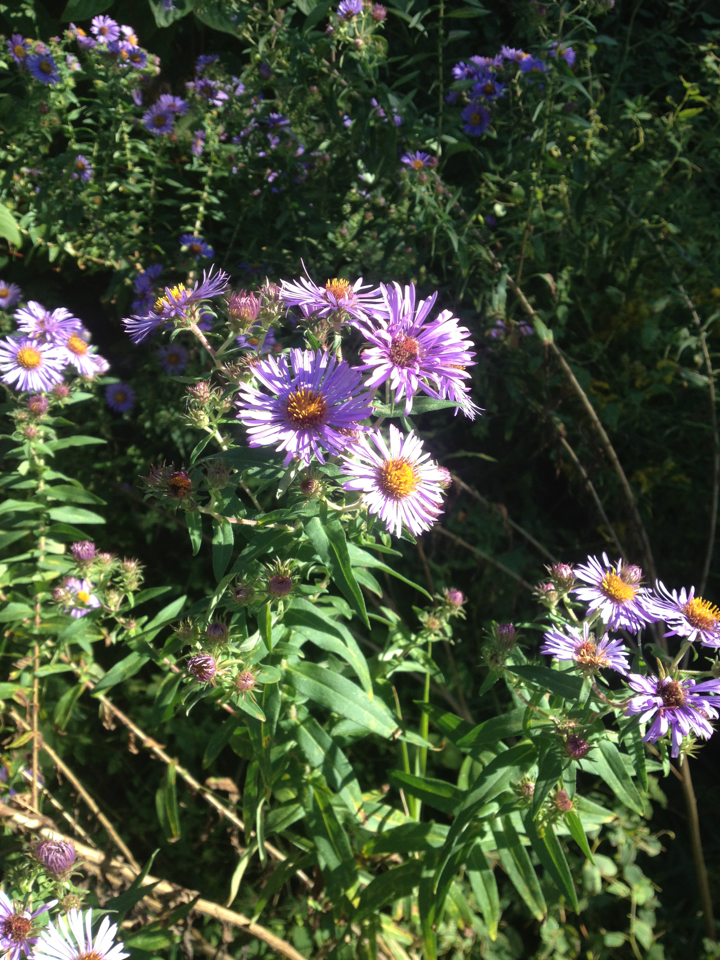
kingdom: Plantae
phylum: Tracheophyta
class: Magnoliopsida
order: Asterales
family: Asteraceae
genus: Symphyotrichum
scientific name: Symphyotrichum novae-angliae
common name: Michaelmas daisy
